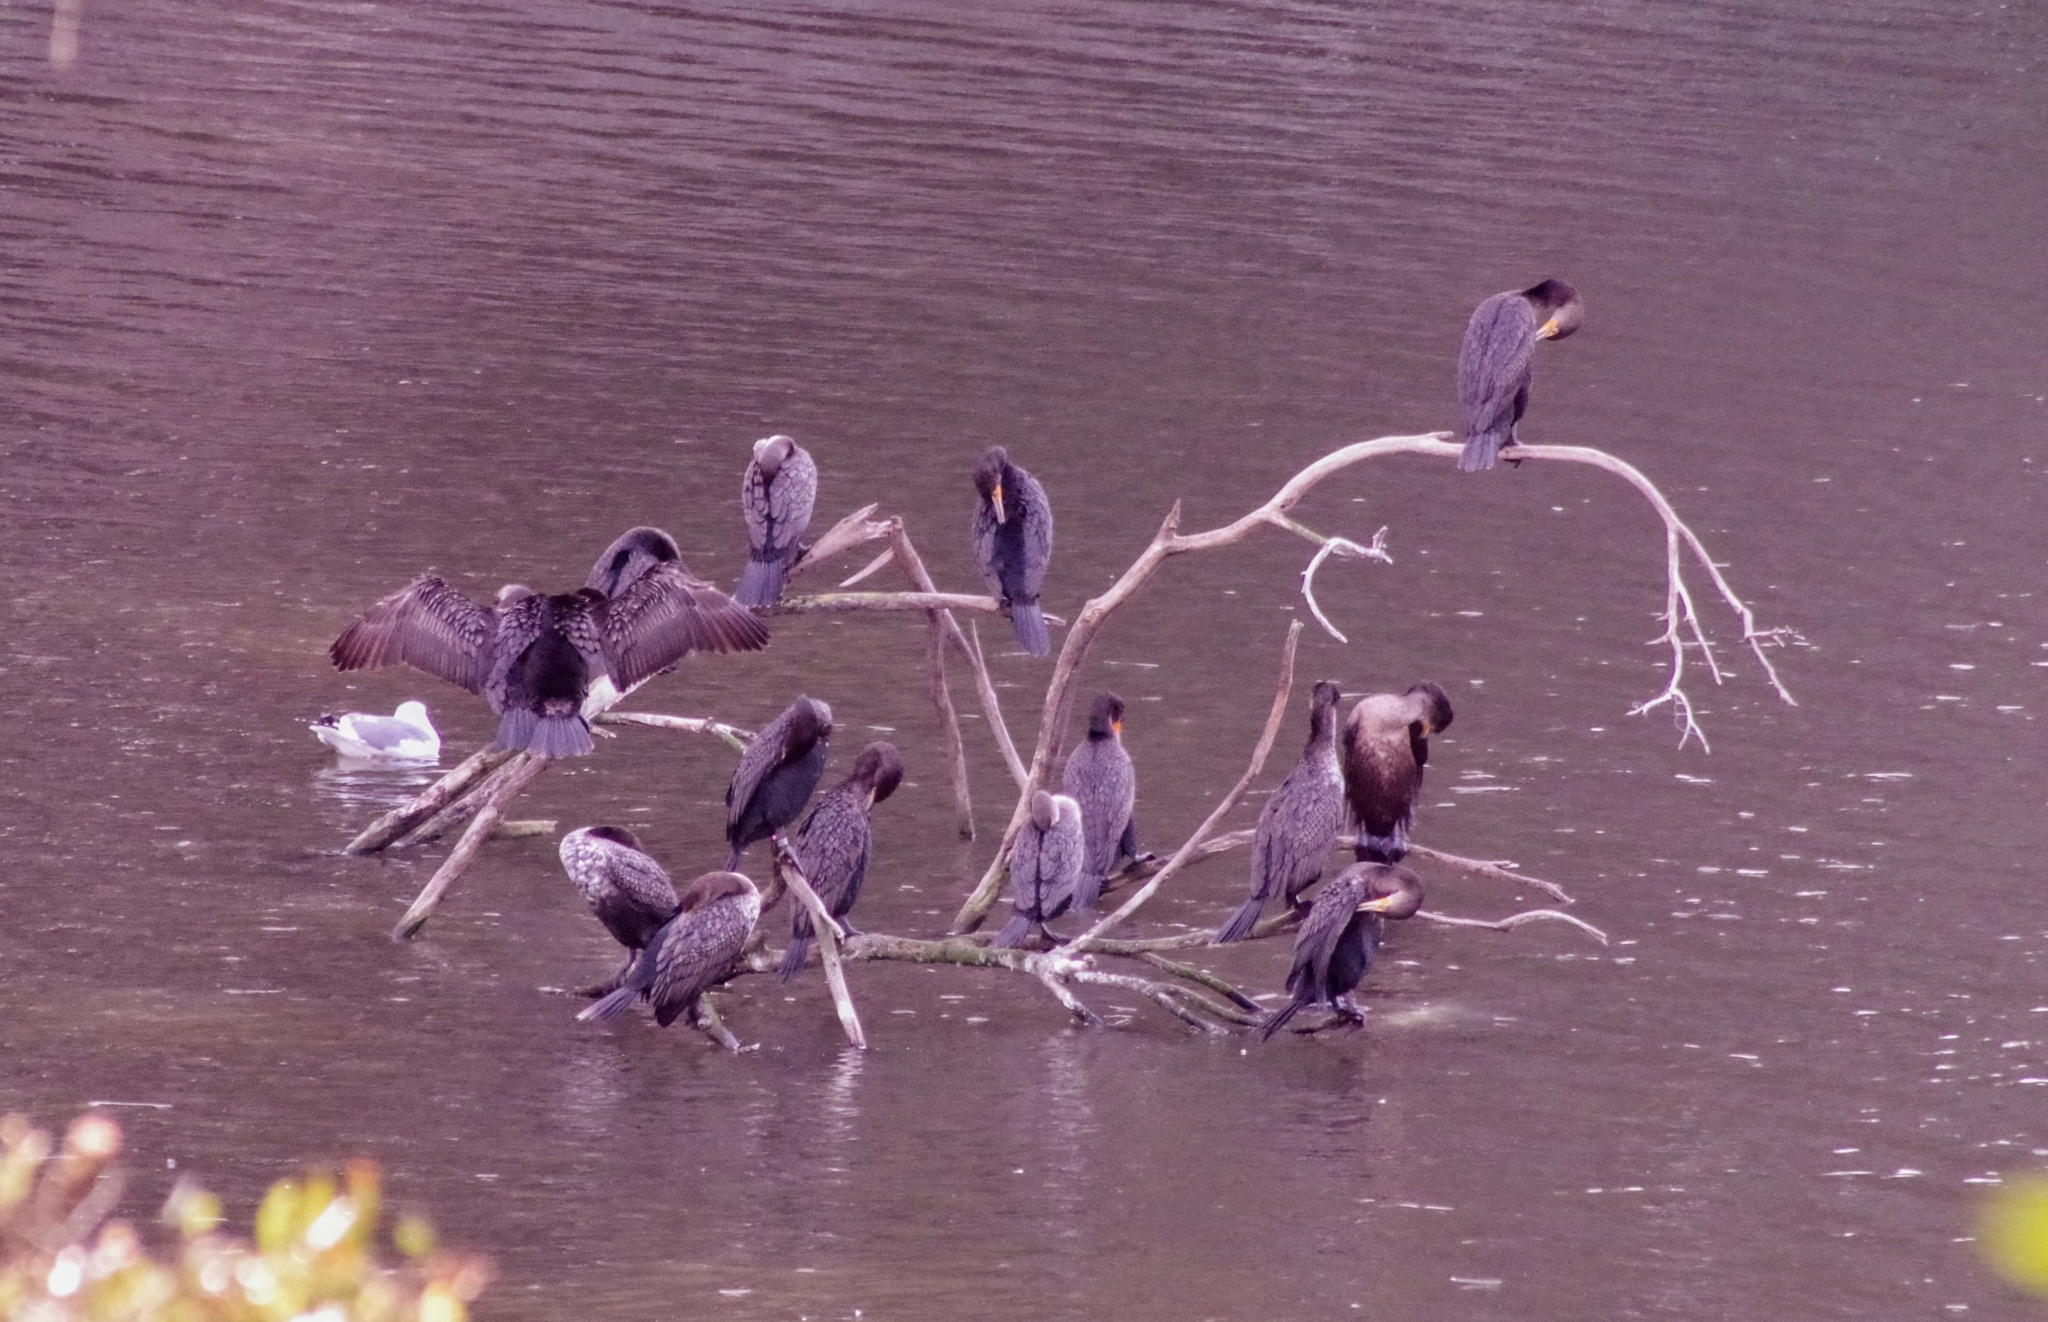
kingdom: Animalia
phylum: Chordata
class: Aves
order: Suliformes
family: Phalacrocoracidae
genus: Phalacrocorax
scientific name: Phalacrocorax auritus
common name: Double-crested cormorant
